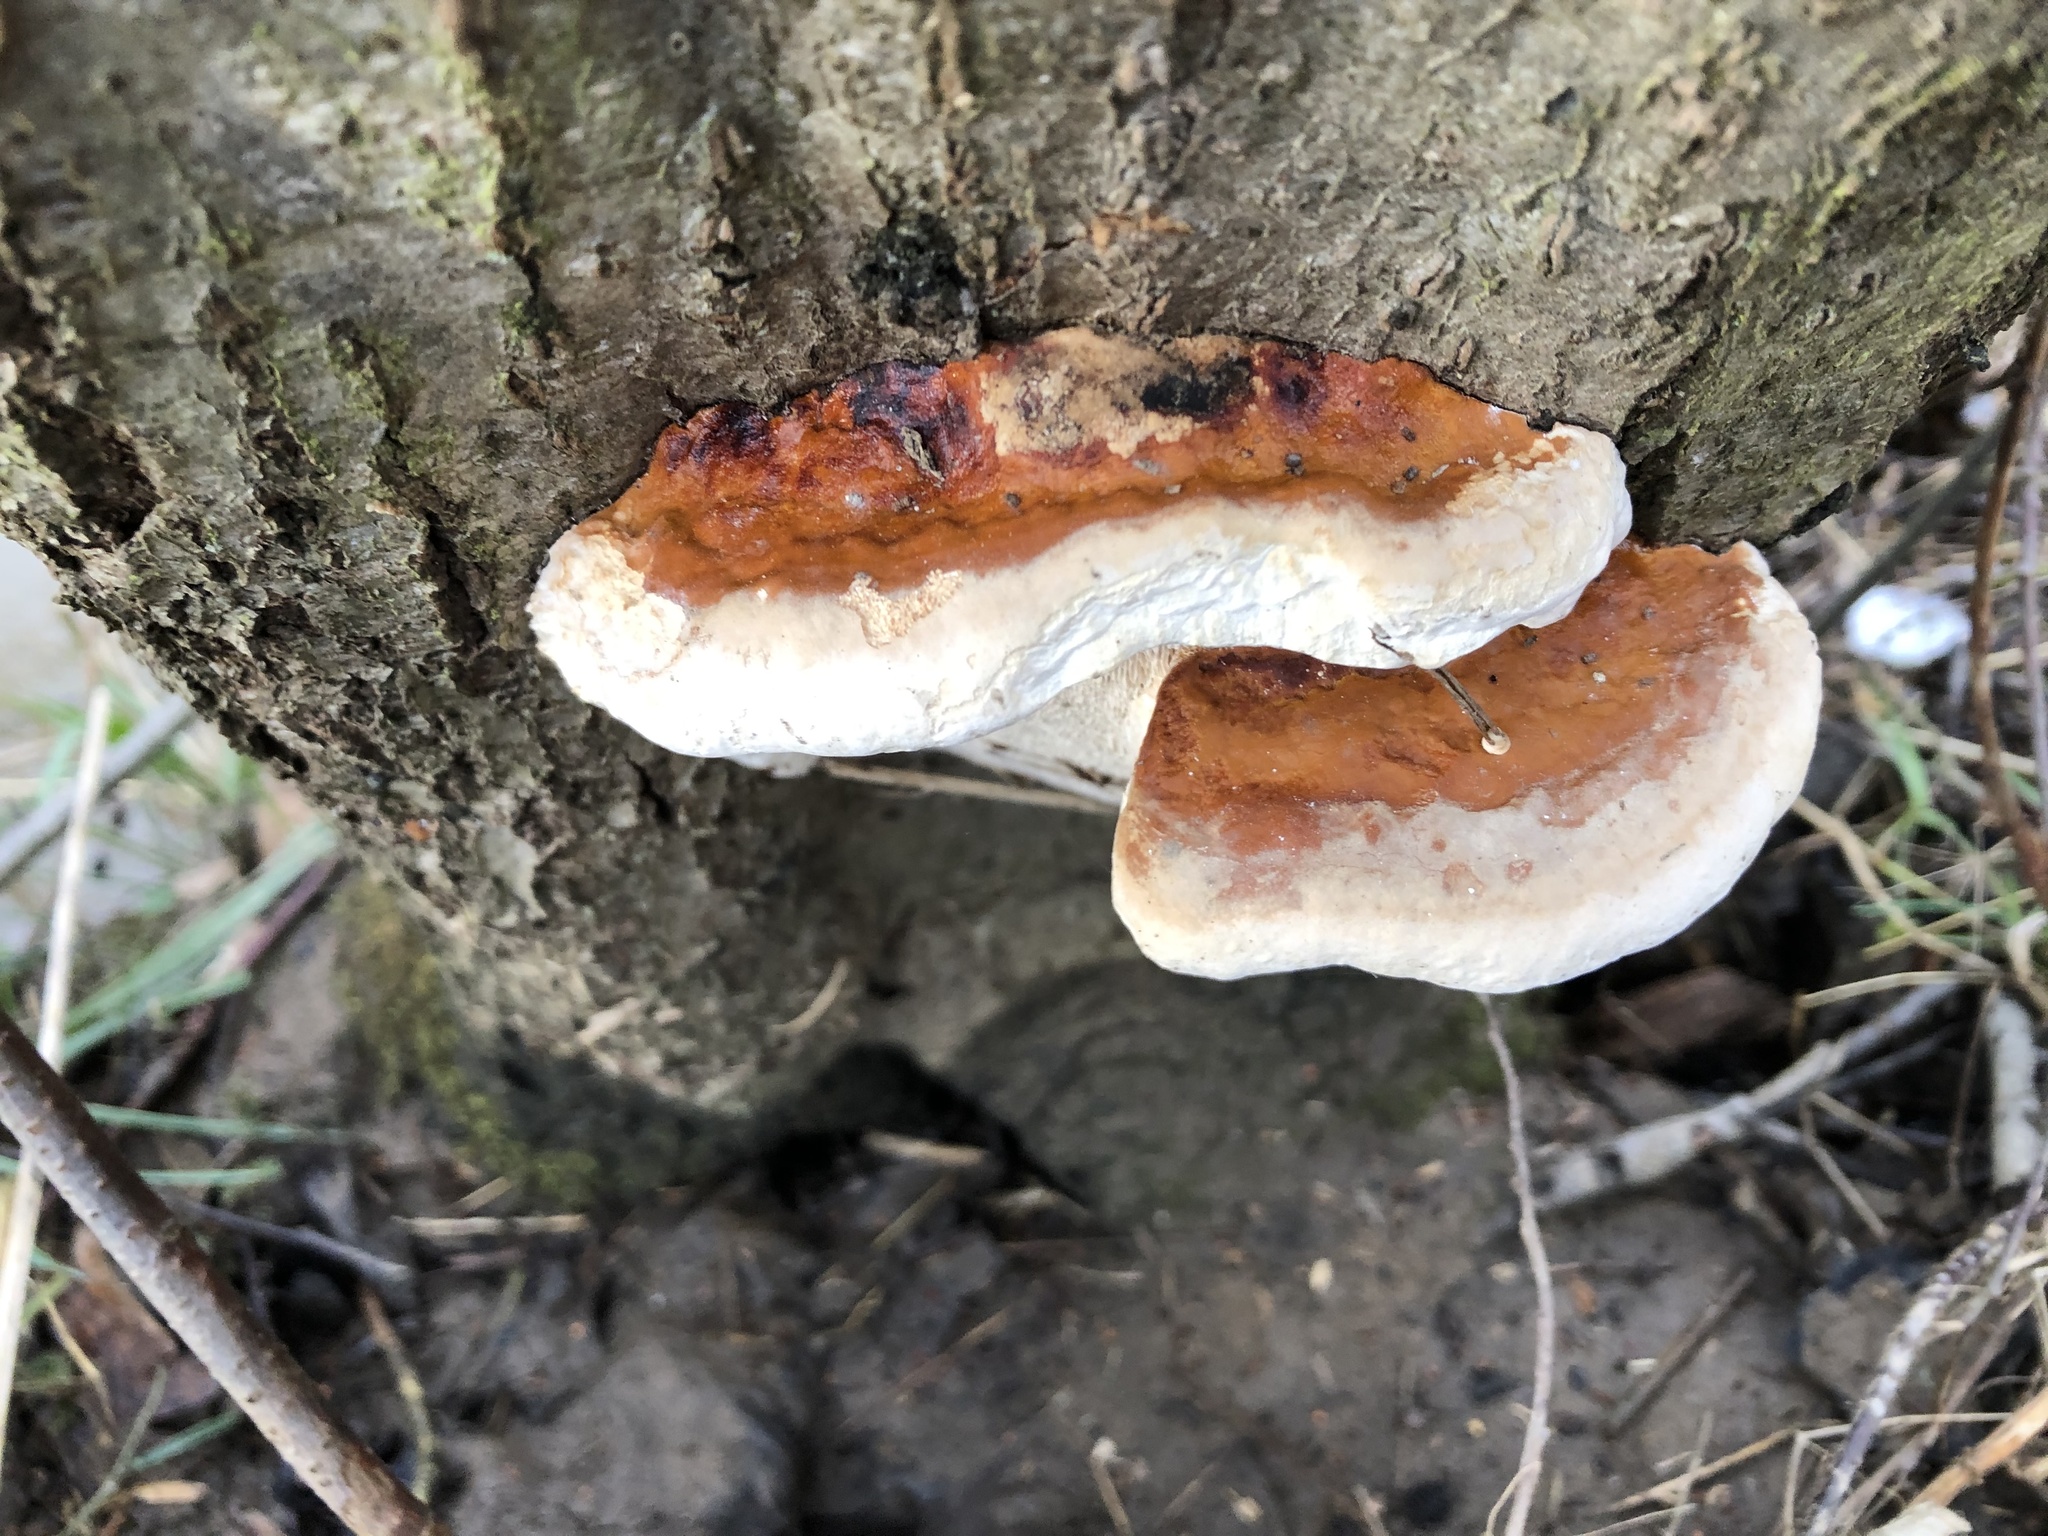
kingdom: Fungi
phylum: Basidiomycota
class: Agaricomycetes
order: Polyporales
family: Fomitopsidaceae
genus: Fomitopsis
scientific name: Fomitopsis pinicola
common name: Red-belted bracket
